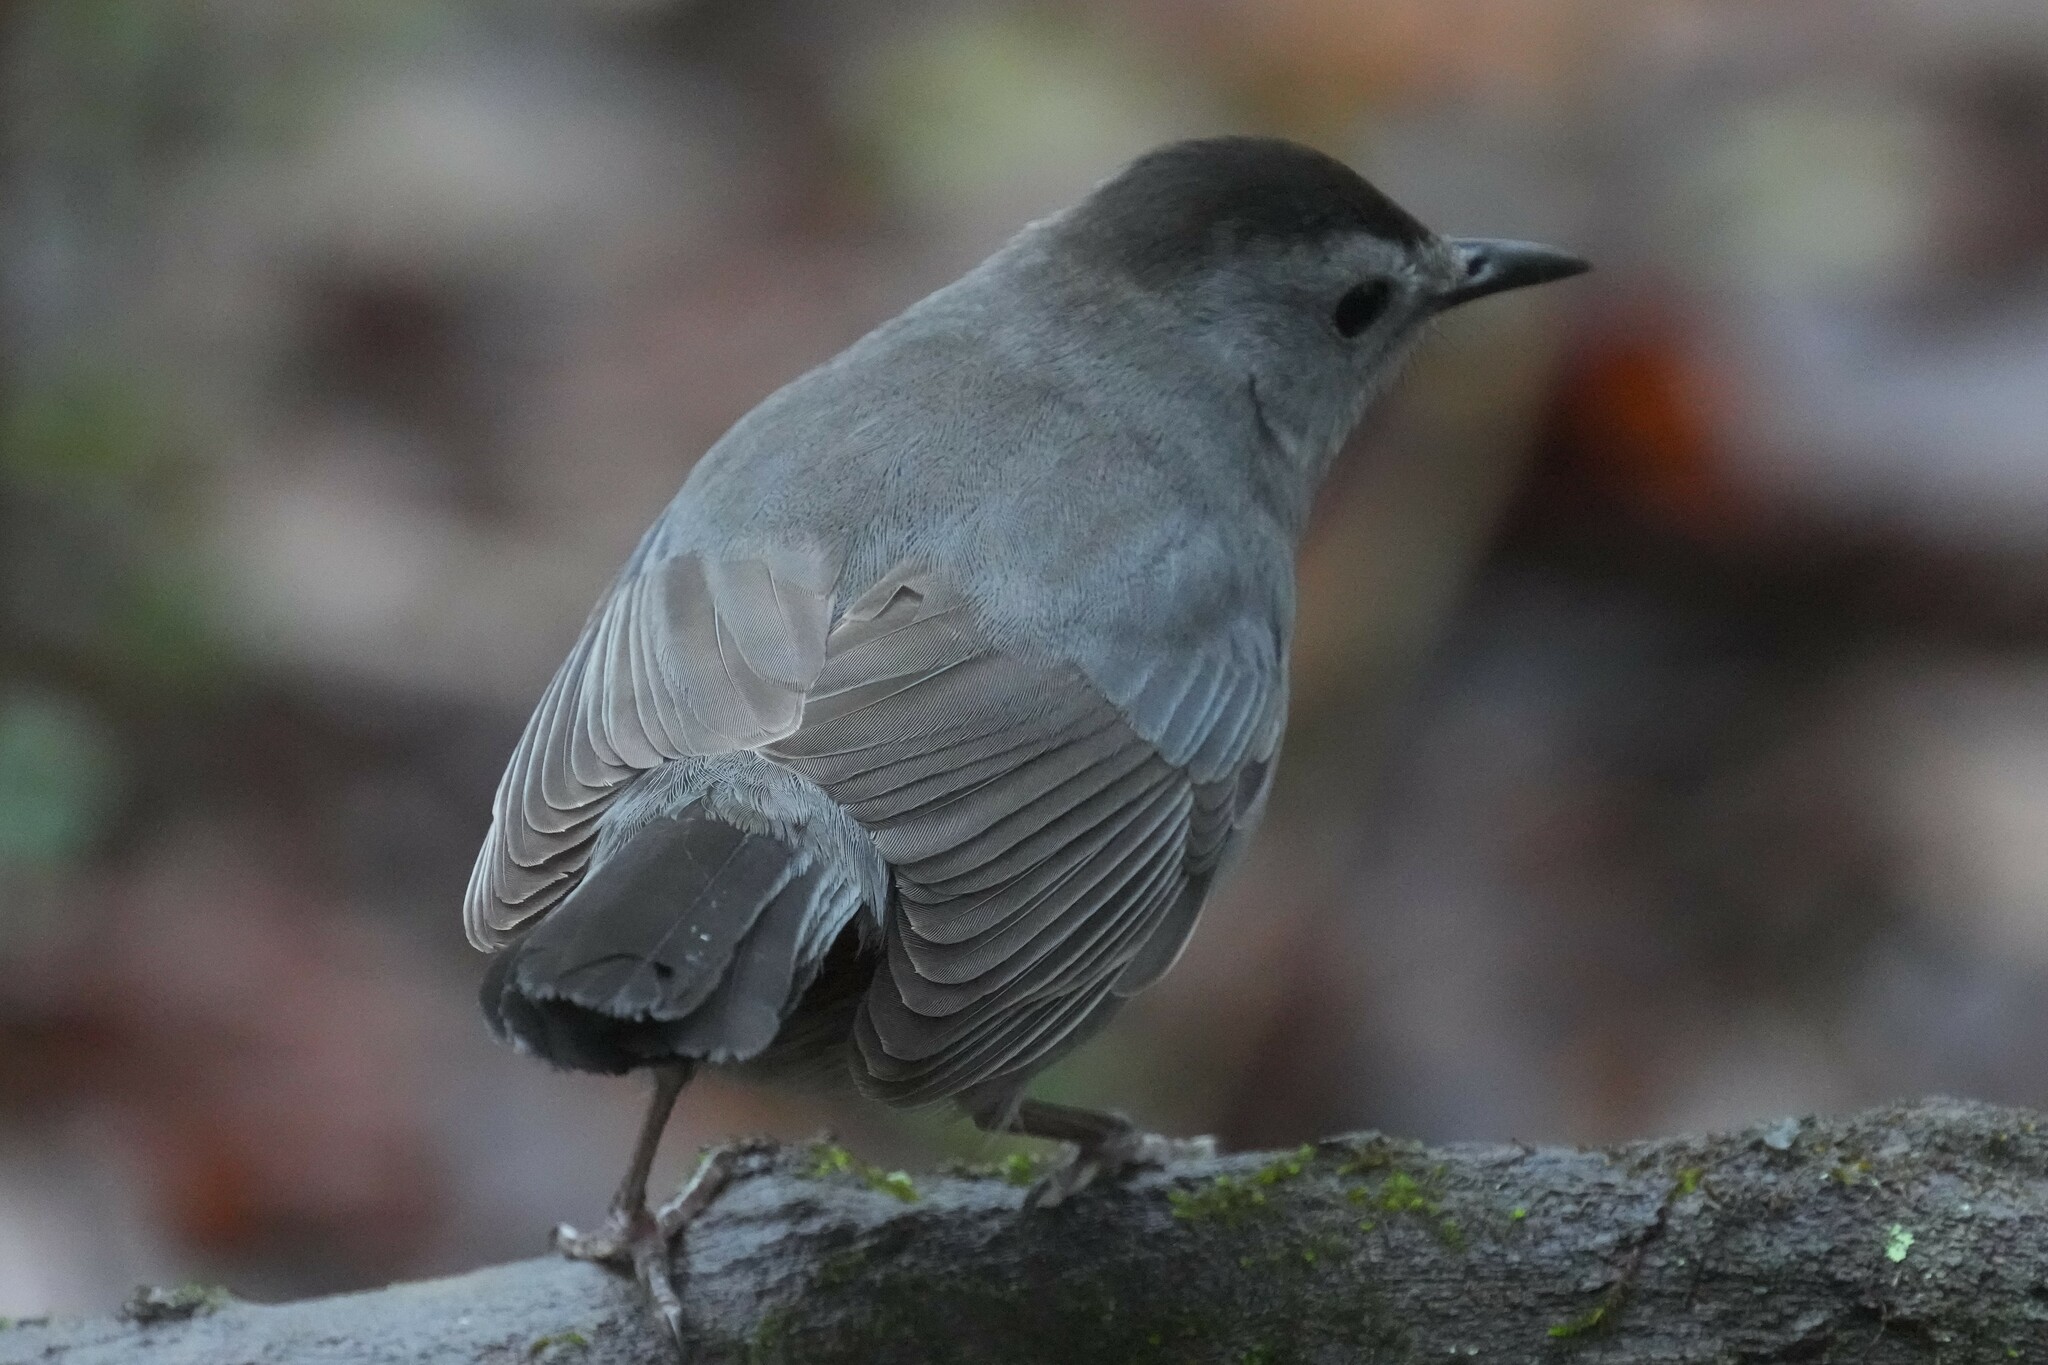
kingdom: Animalia
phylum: Chordata
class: Aves
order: Passeriformes
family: Mimidae
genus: Dumetella
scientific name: Dumetella carolinensis
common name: Gray catbird
